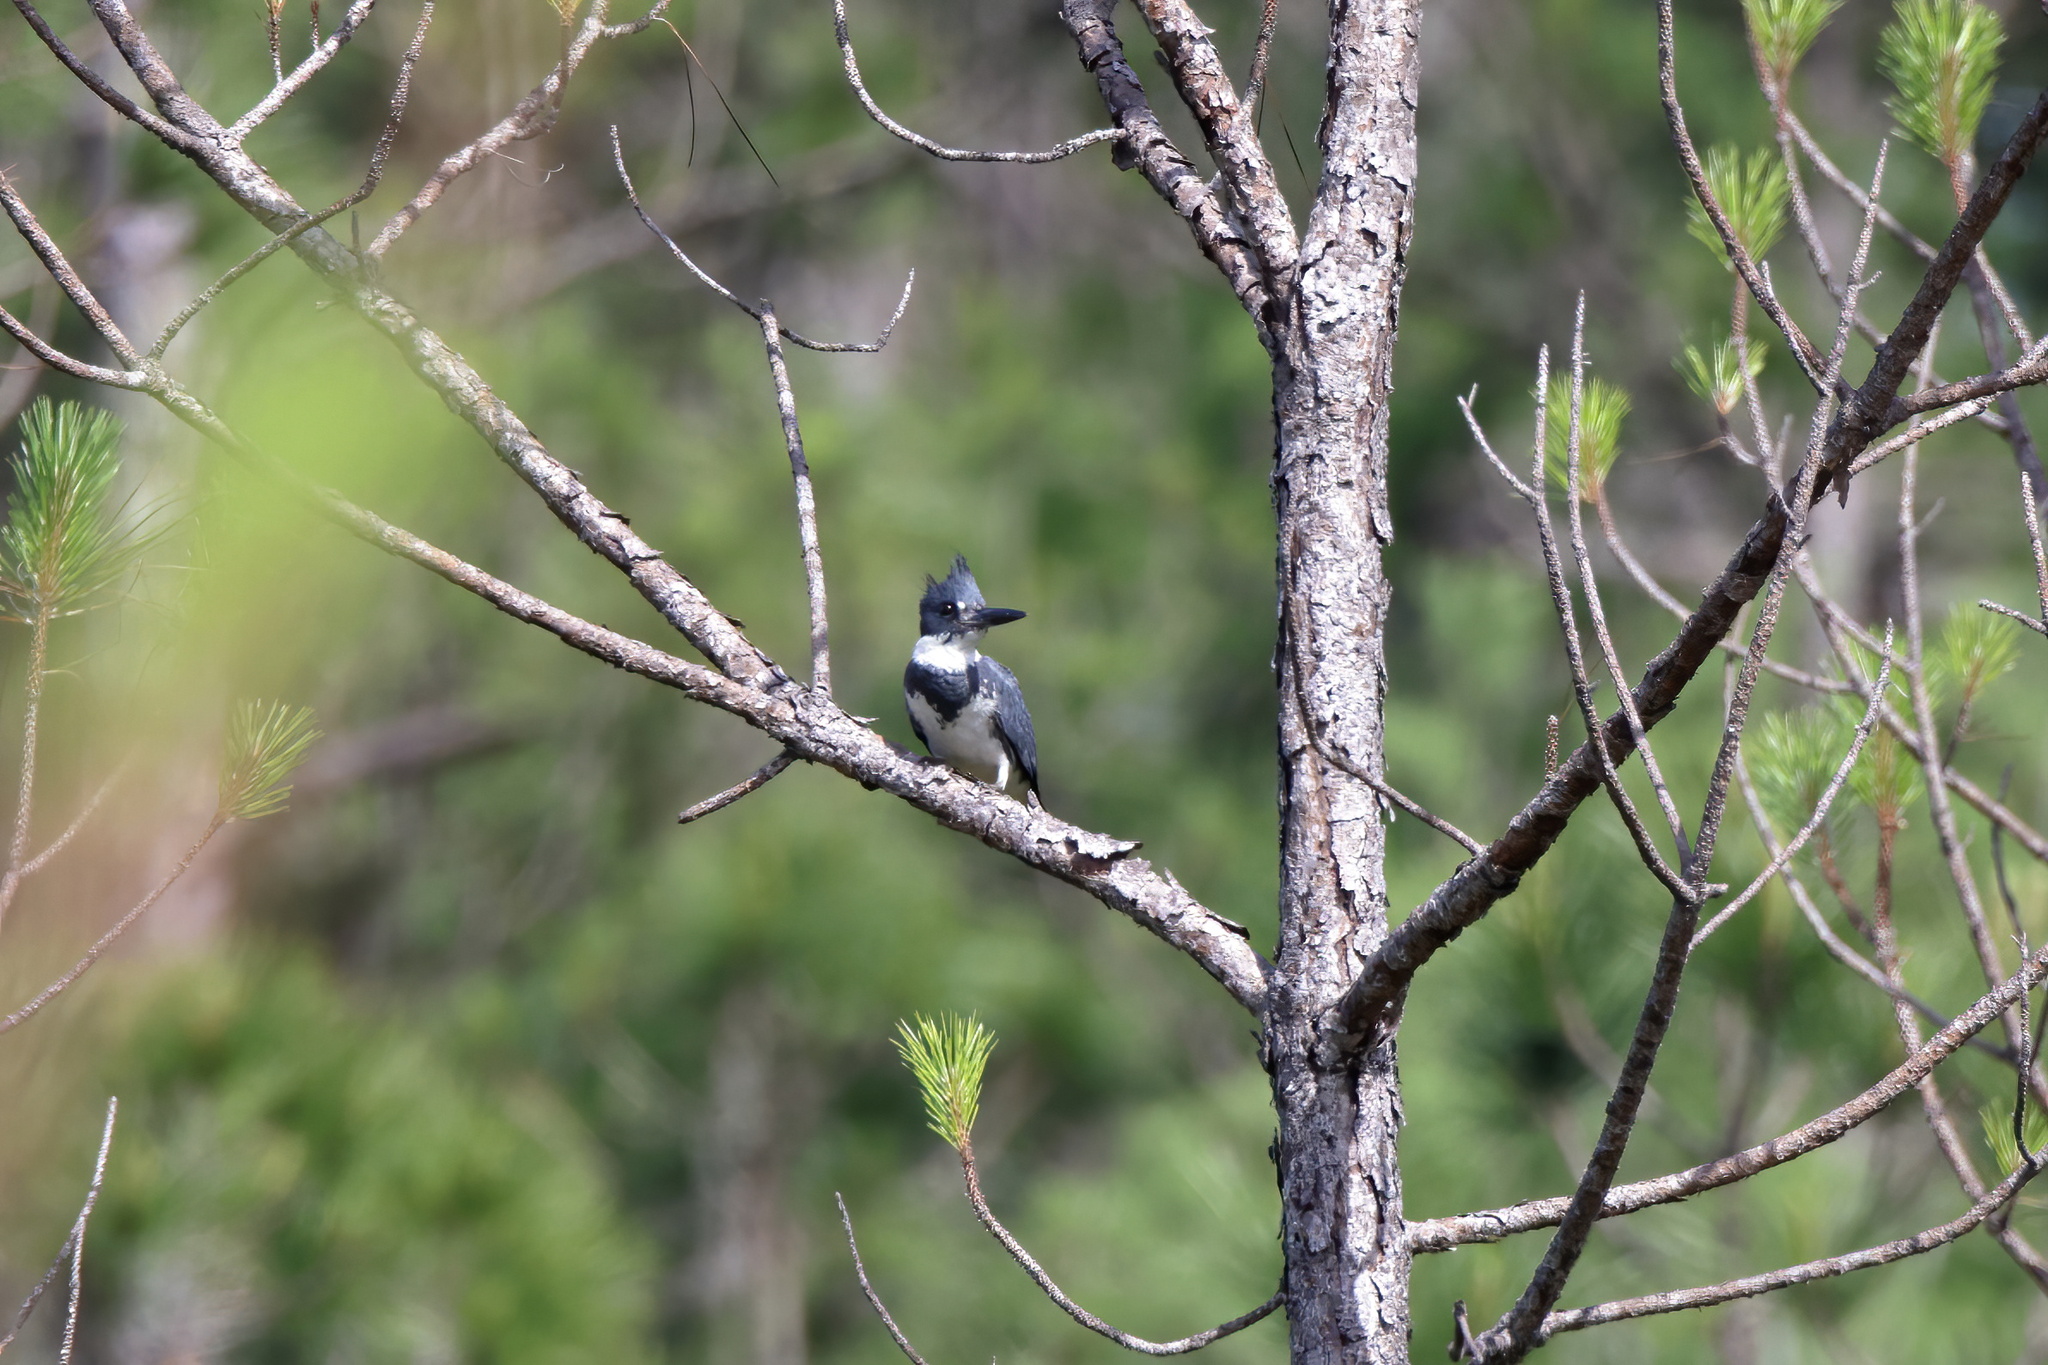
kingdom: Animalia
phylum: Chordata
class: Aves
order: Coraciiformes
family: Alcedinidae
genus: Megaceryle
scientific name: Megaceryle alcyon
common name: Belted kingfisher
